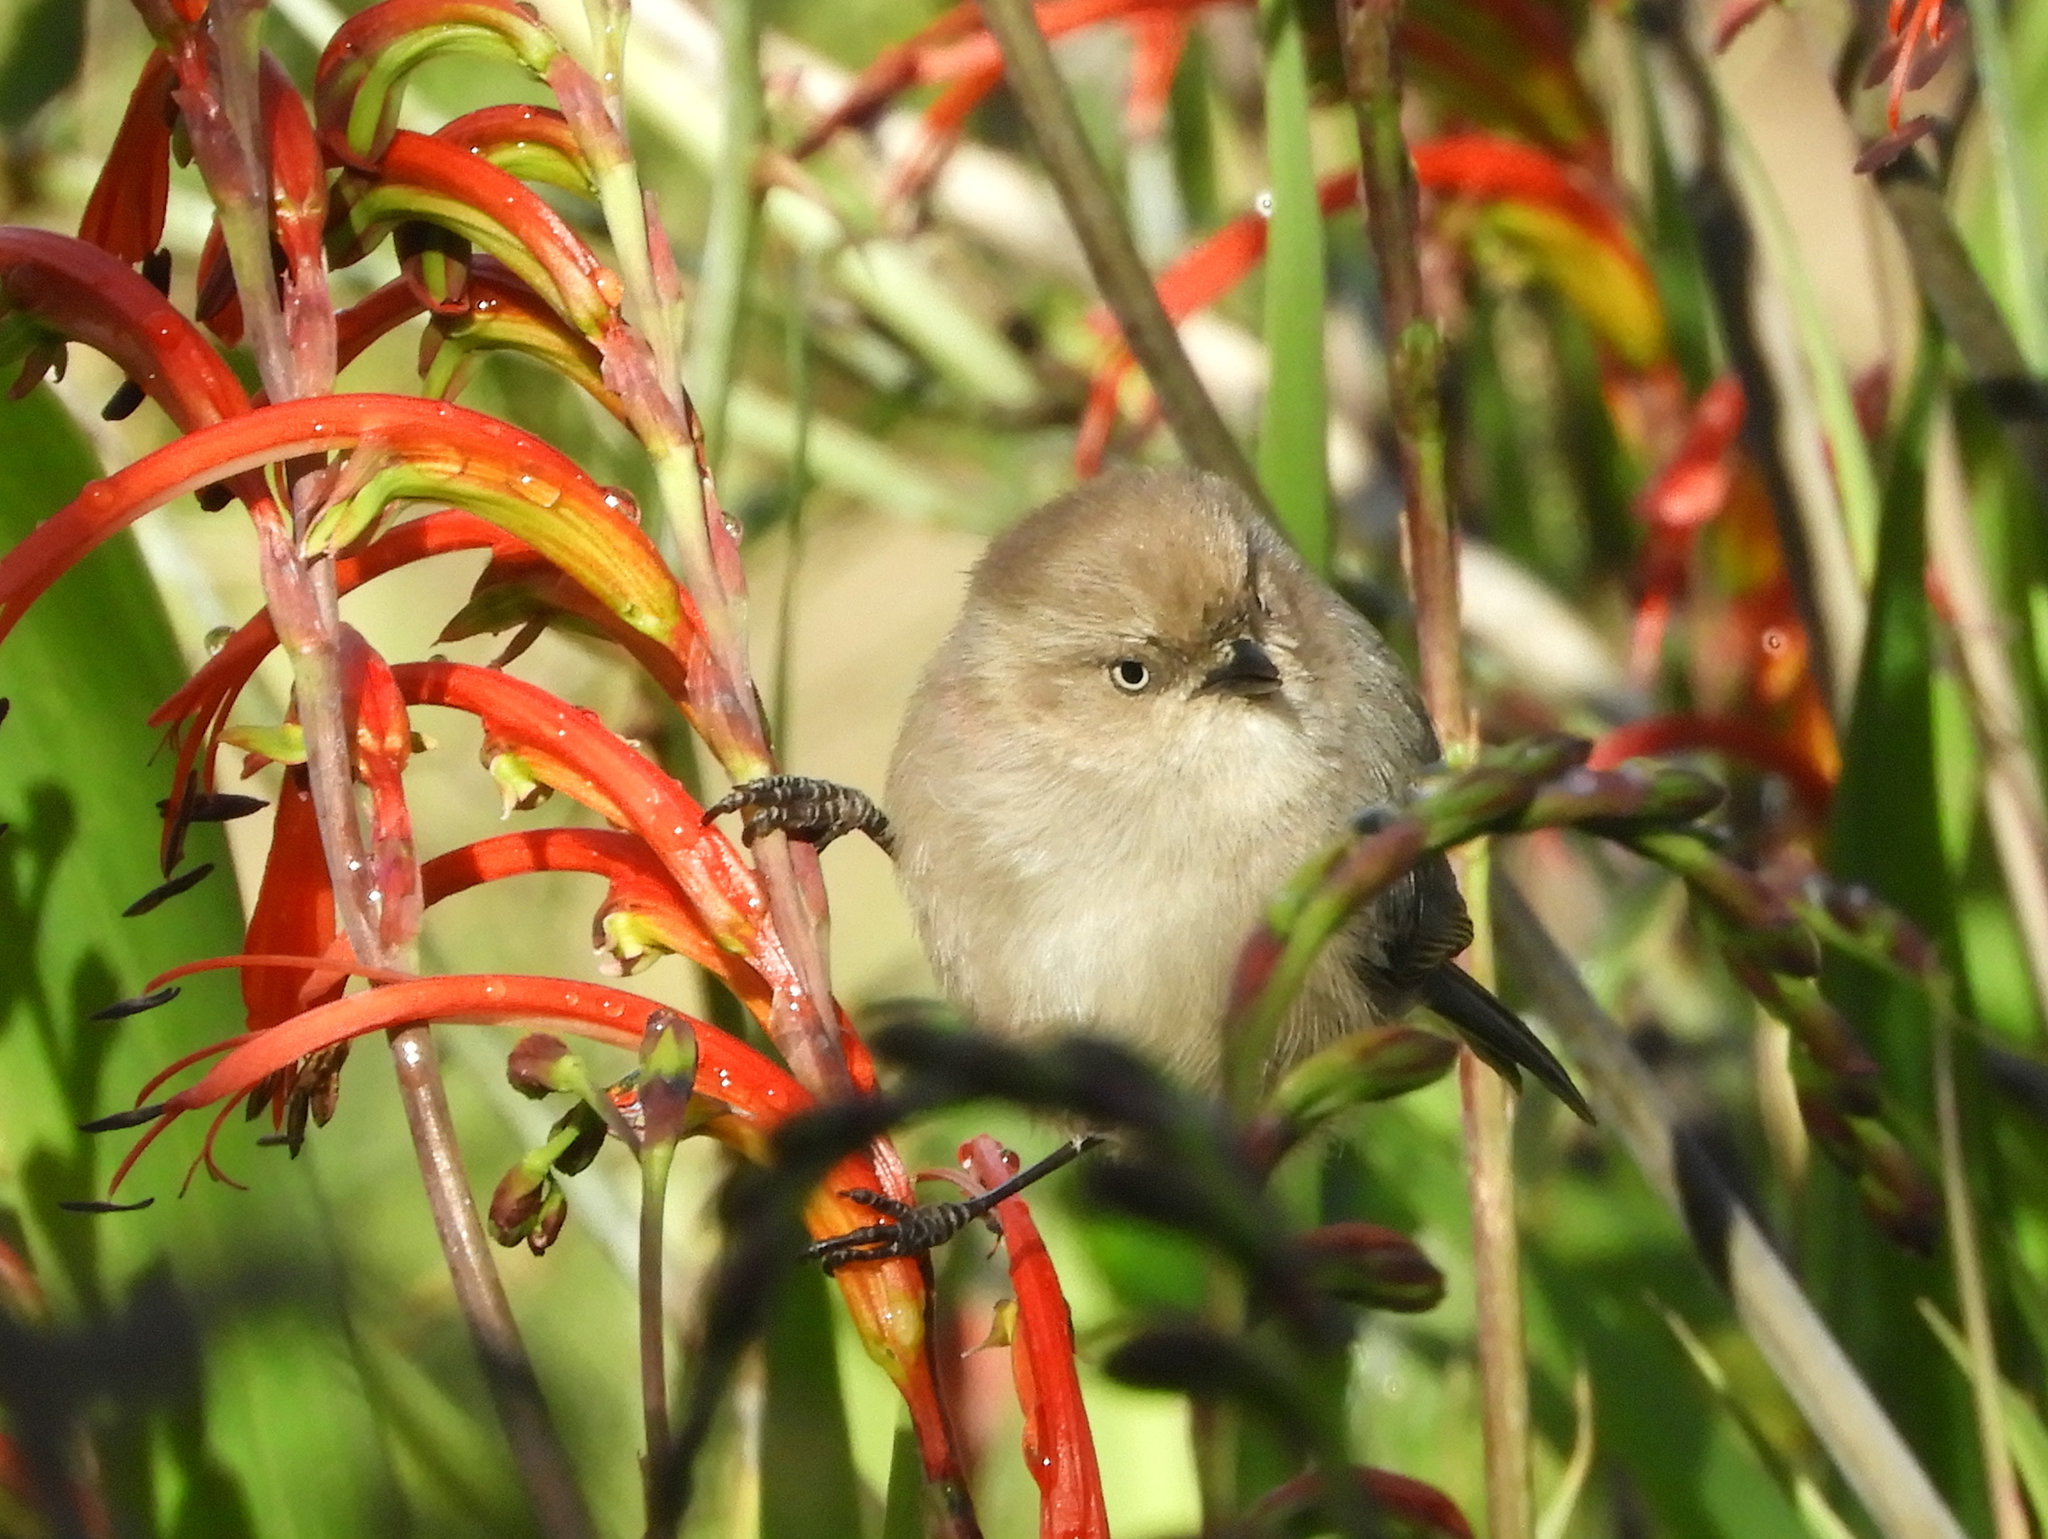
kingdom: Animalia
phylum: Chordata
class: Aves
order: Passeriformes
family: Aegithalidae
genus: Psaltriparus
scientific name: Psaltriparus minimus
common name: American bushtit
